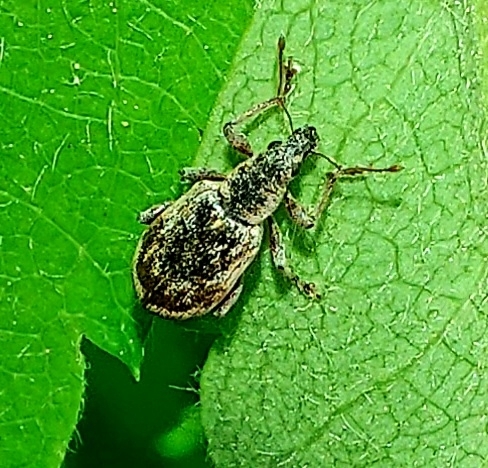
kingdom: Animalia
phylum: Arthropoda
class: Insecta
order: Coleoptera
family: Curculionidae
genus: Polydrusus
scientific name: Polydrusus tereticollis
